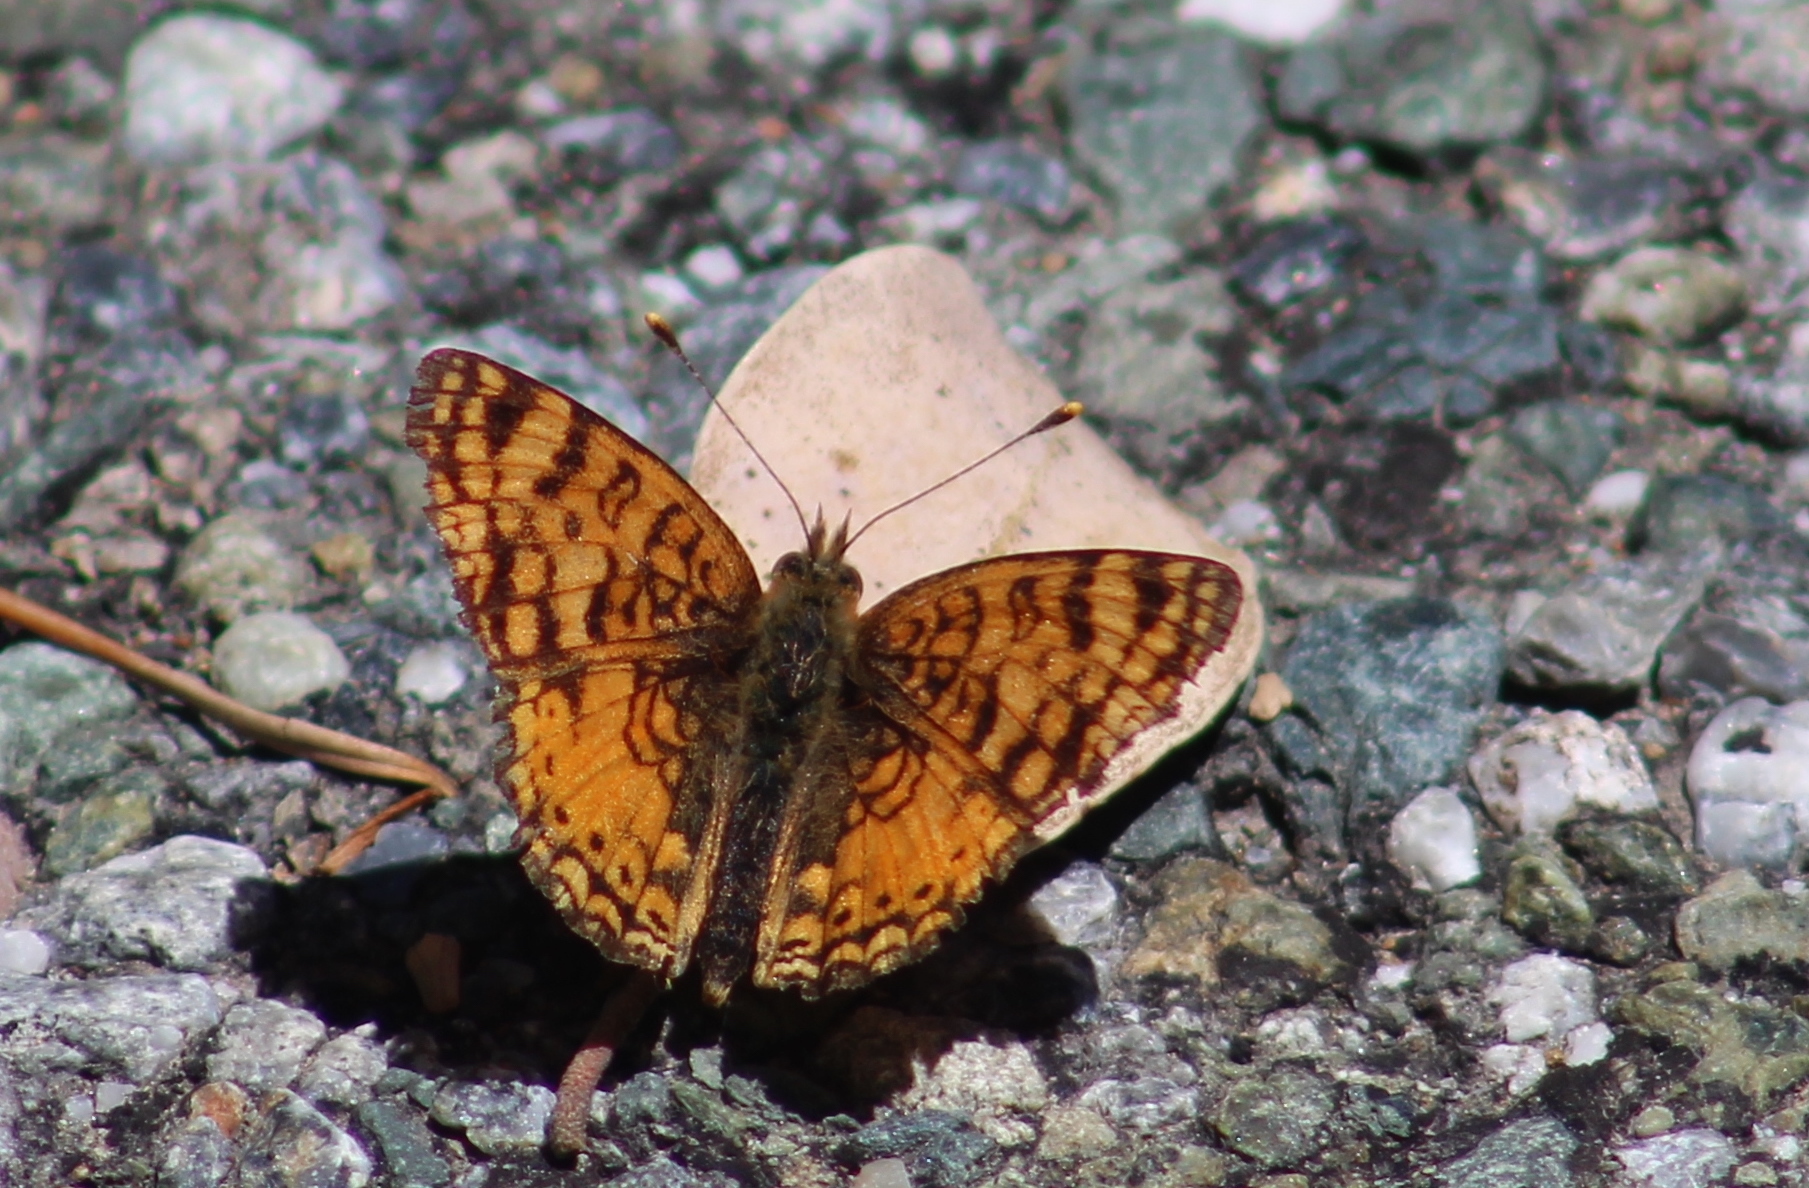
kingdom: Animalia
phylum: Arthropoda
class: Insecta
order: Lepidoptera
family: Nymphalidae
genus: Eresia
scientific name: Eresia aveyrona
